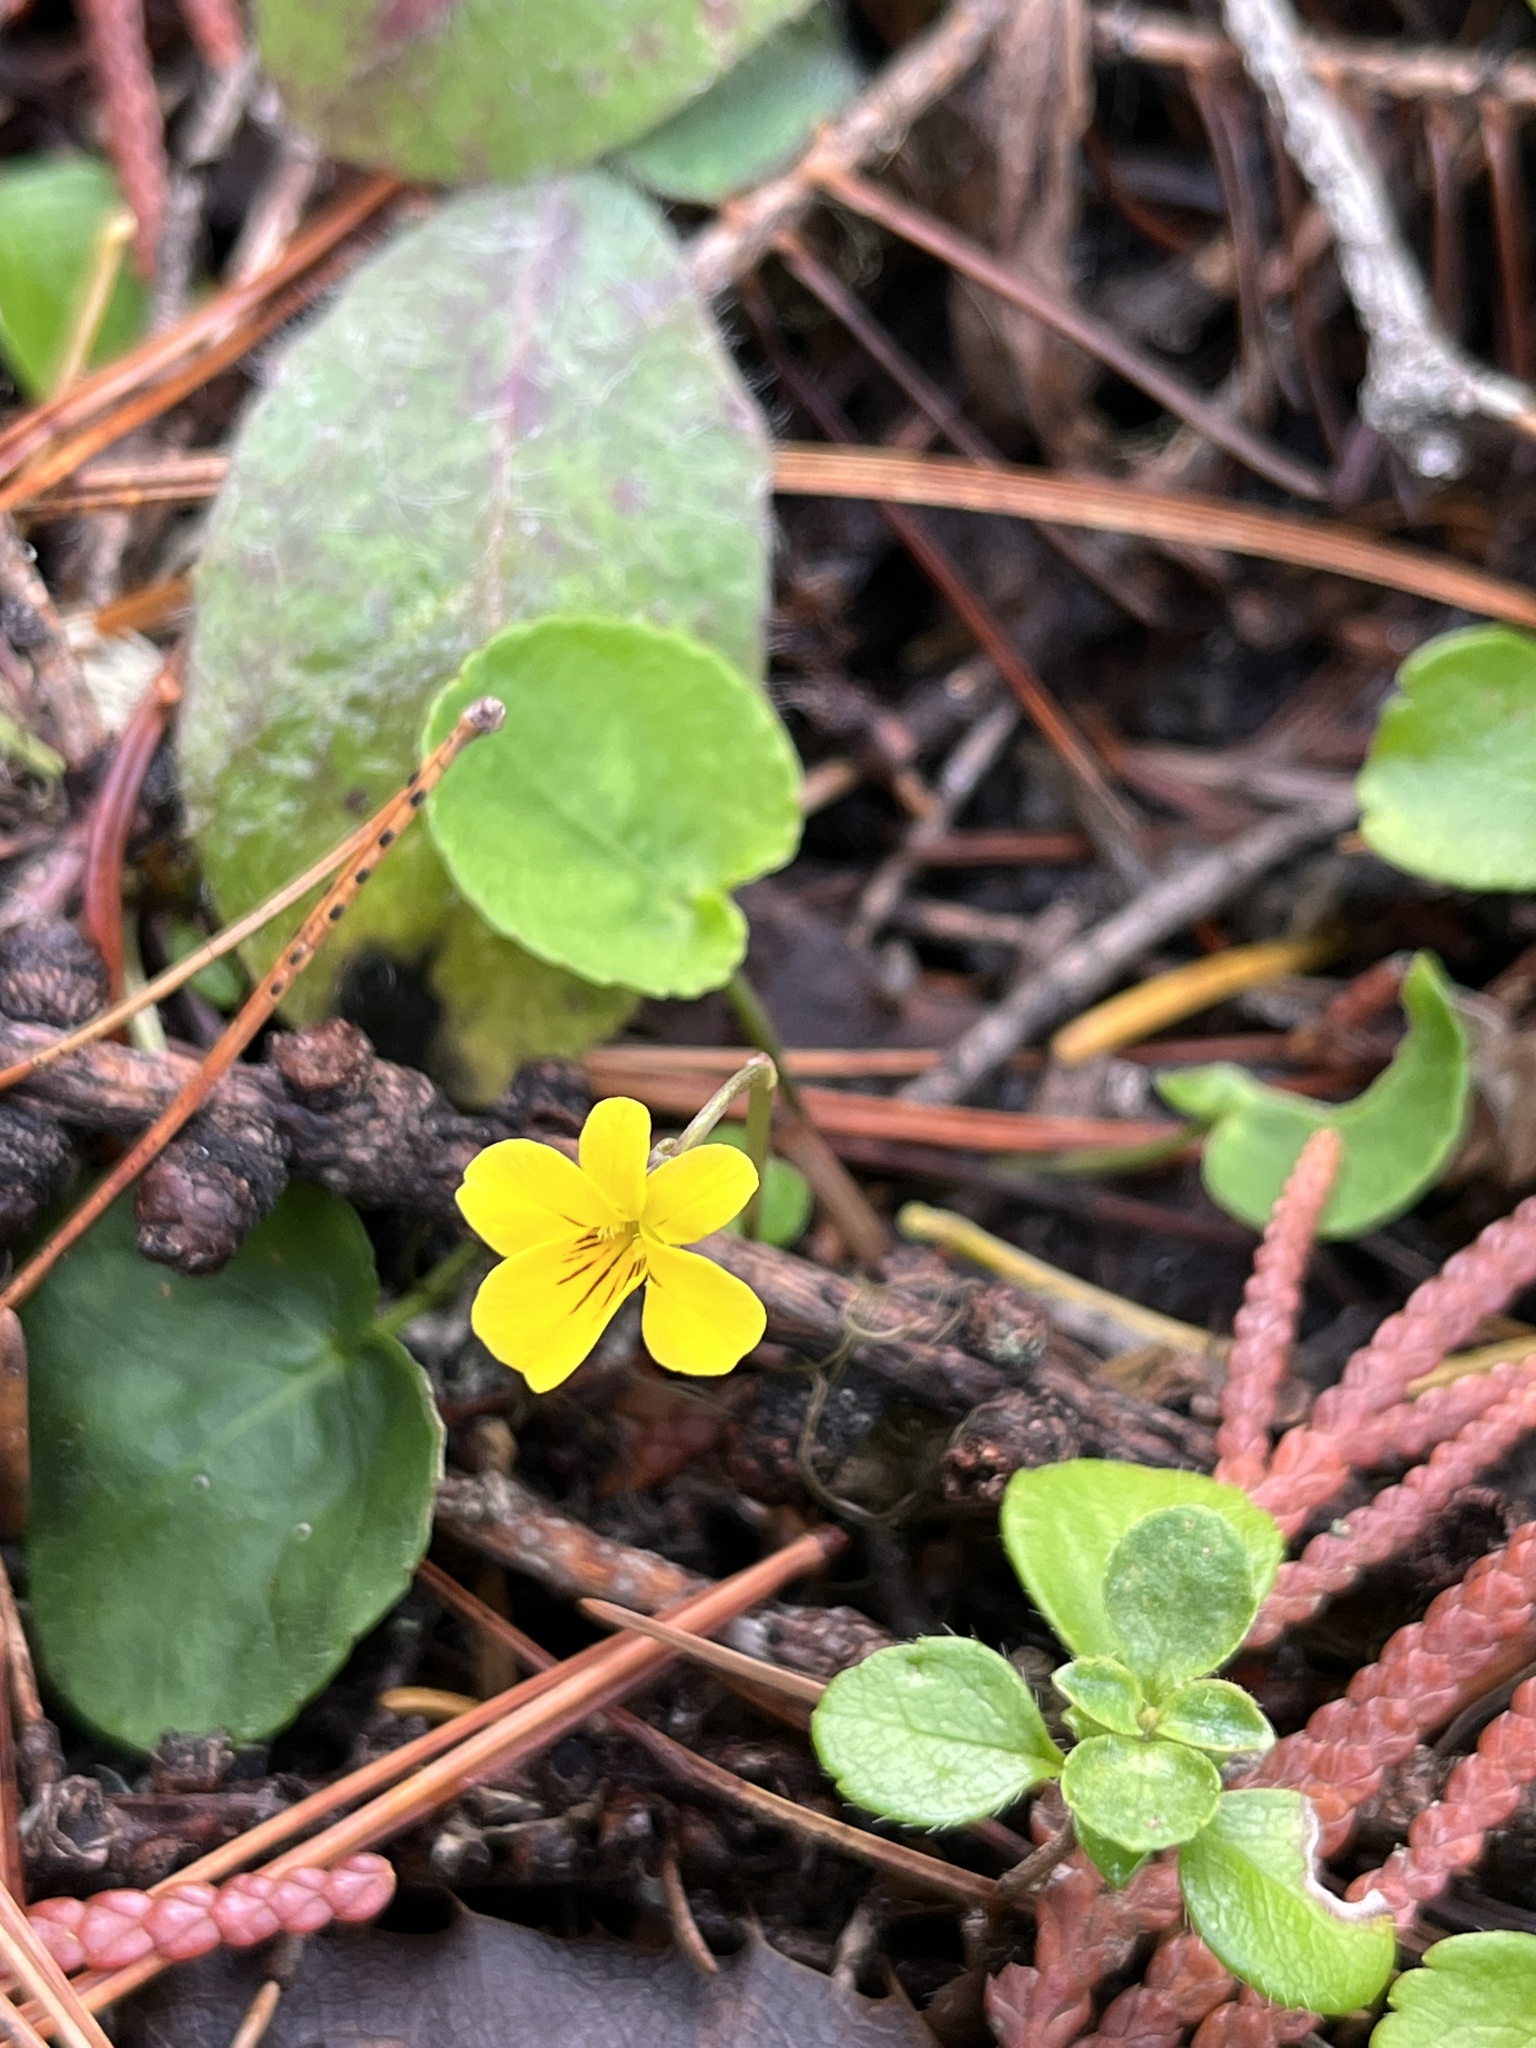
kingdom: Plantae
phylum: Tracheophyta
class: Magnoliopsida
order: Malpighiales
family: Violaceae
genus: Viola
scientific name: Viola orbiculata
